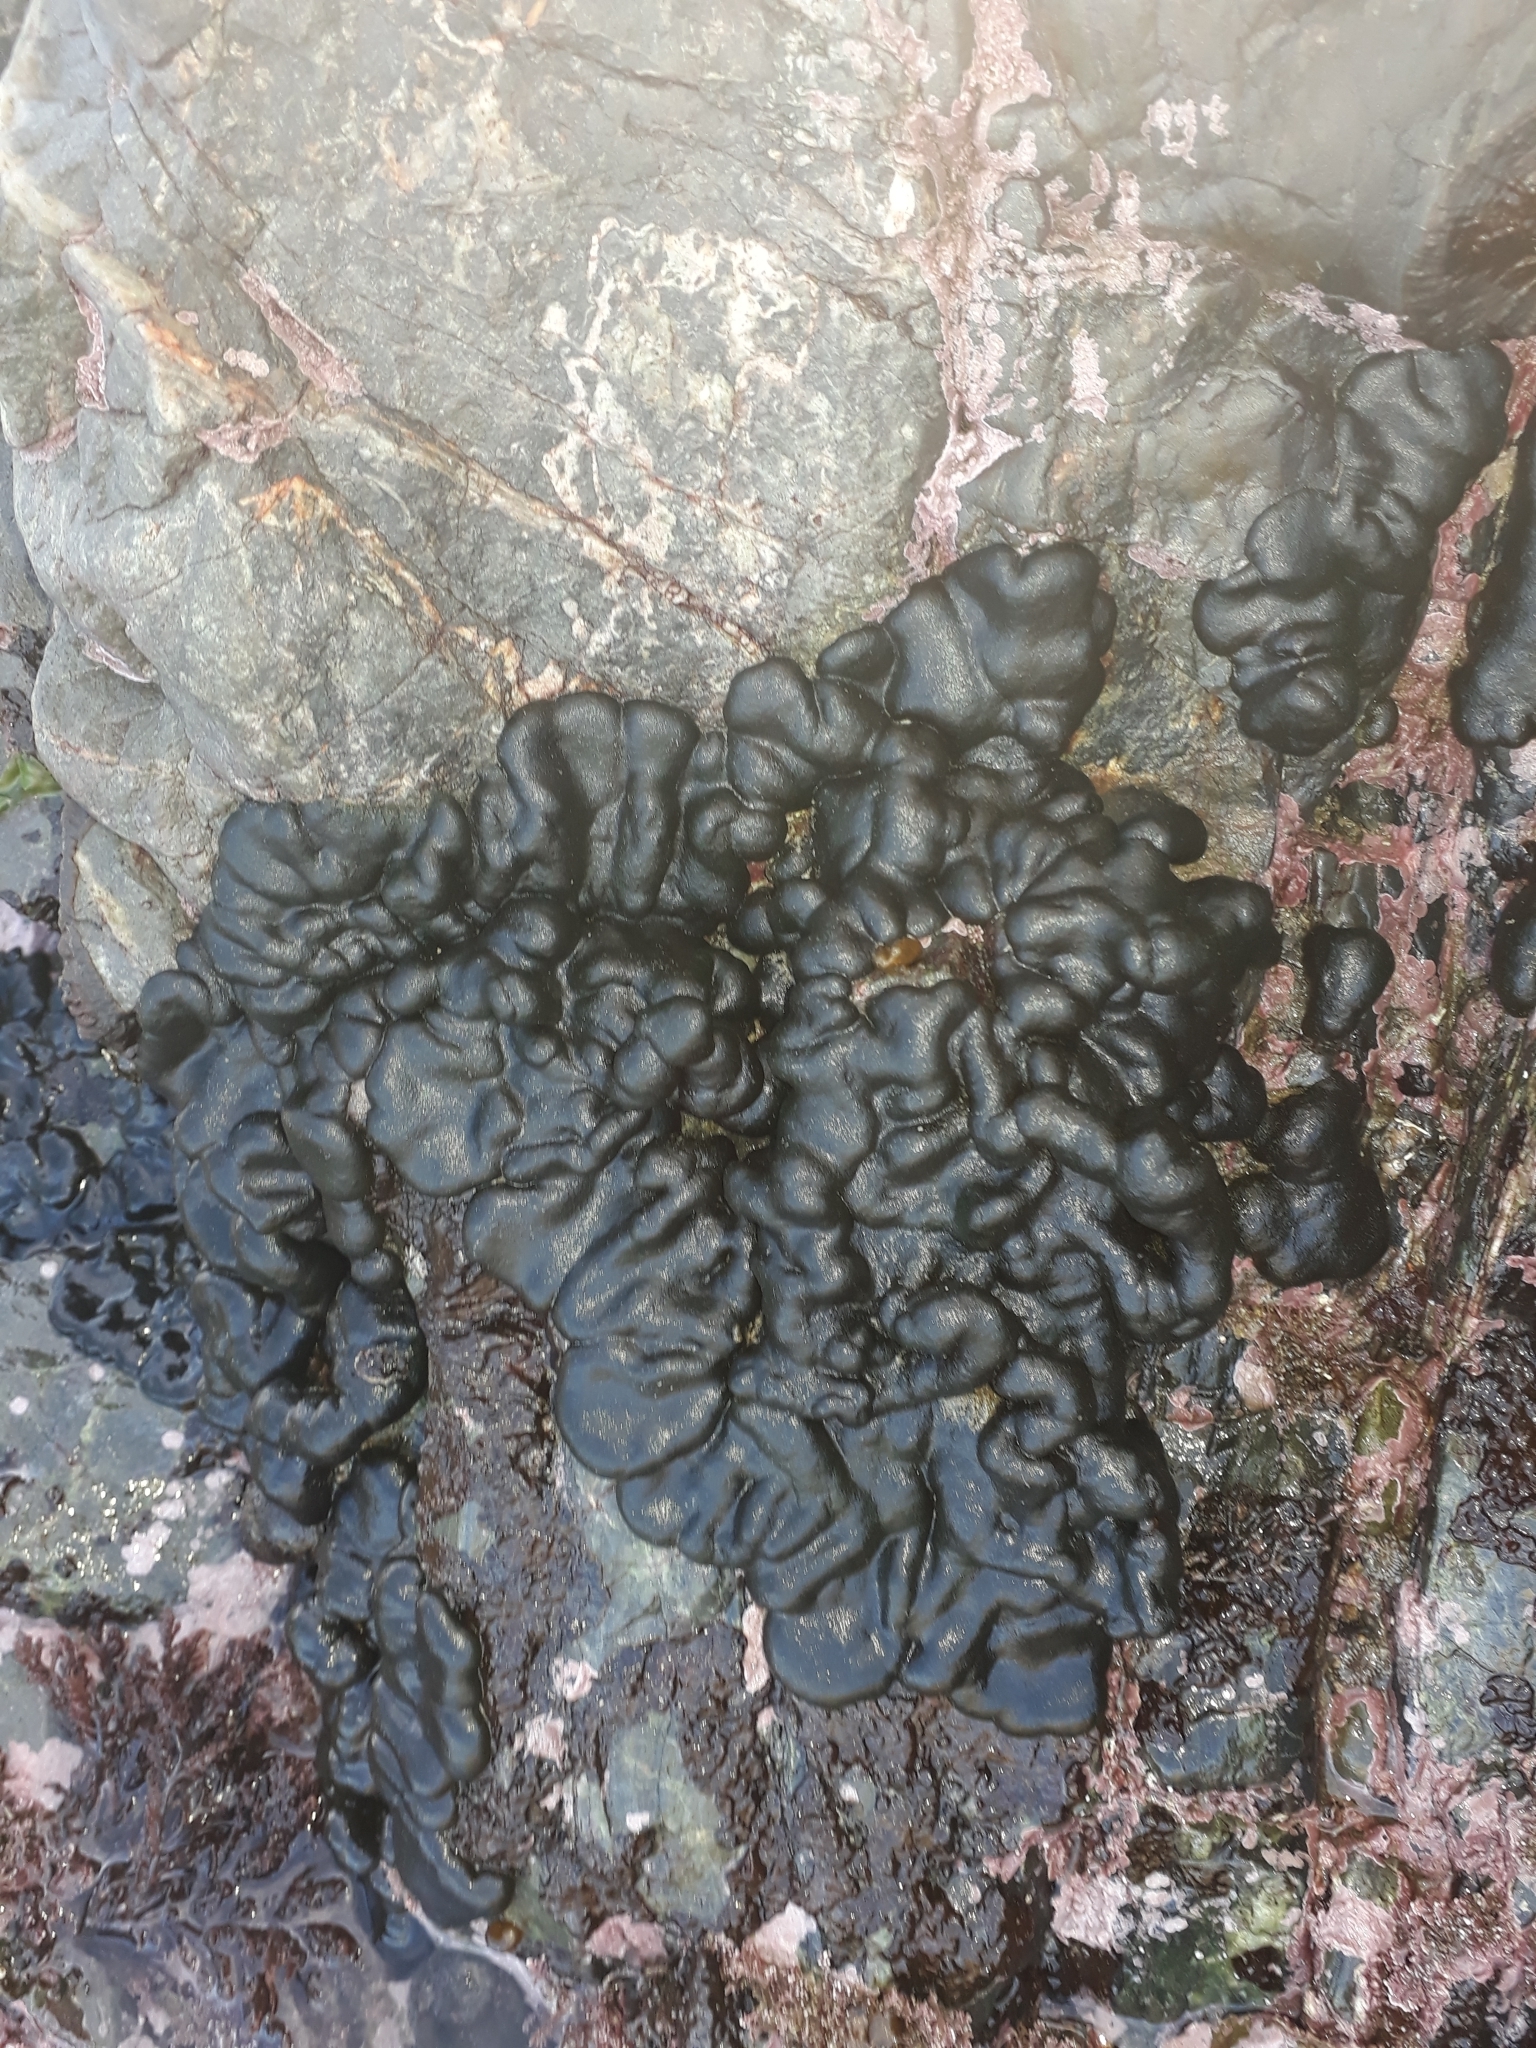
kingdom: Plantae
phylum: Chlorophyta
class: Ulvophyceae
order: Bryopsidales
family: Codiaceae
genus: Codium
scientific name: Codium convolutum
